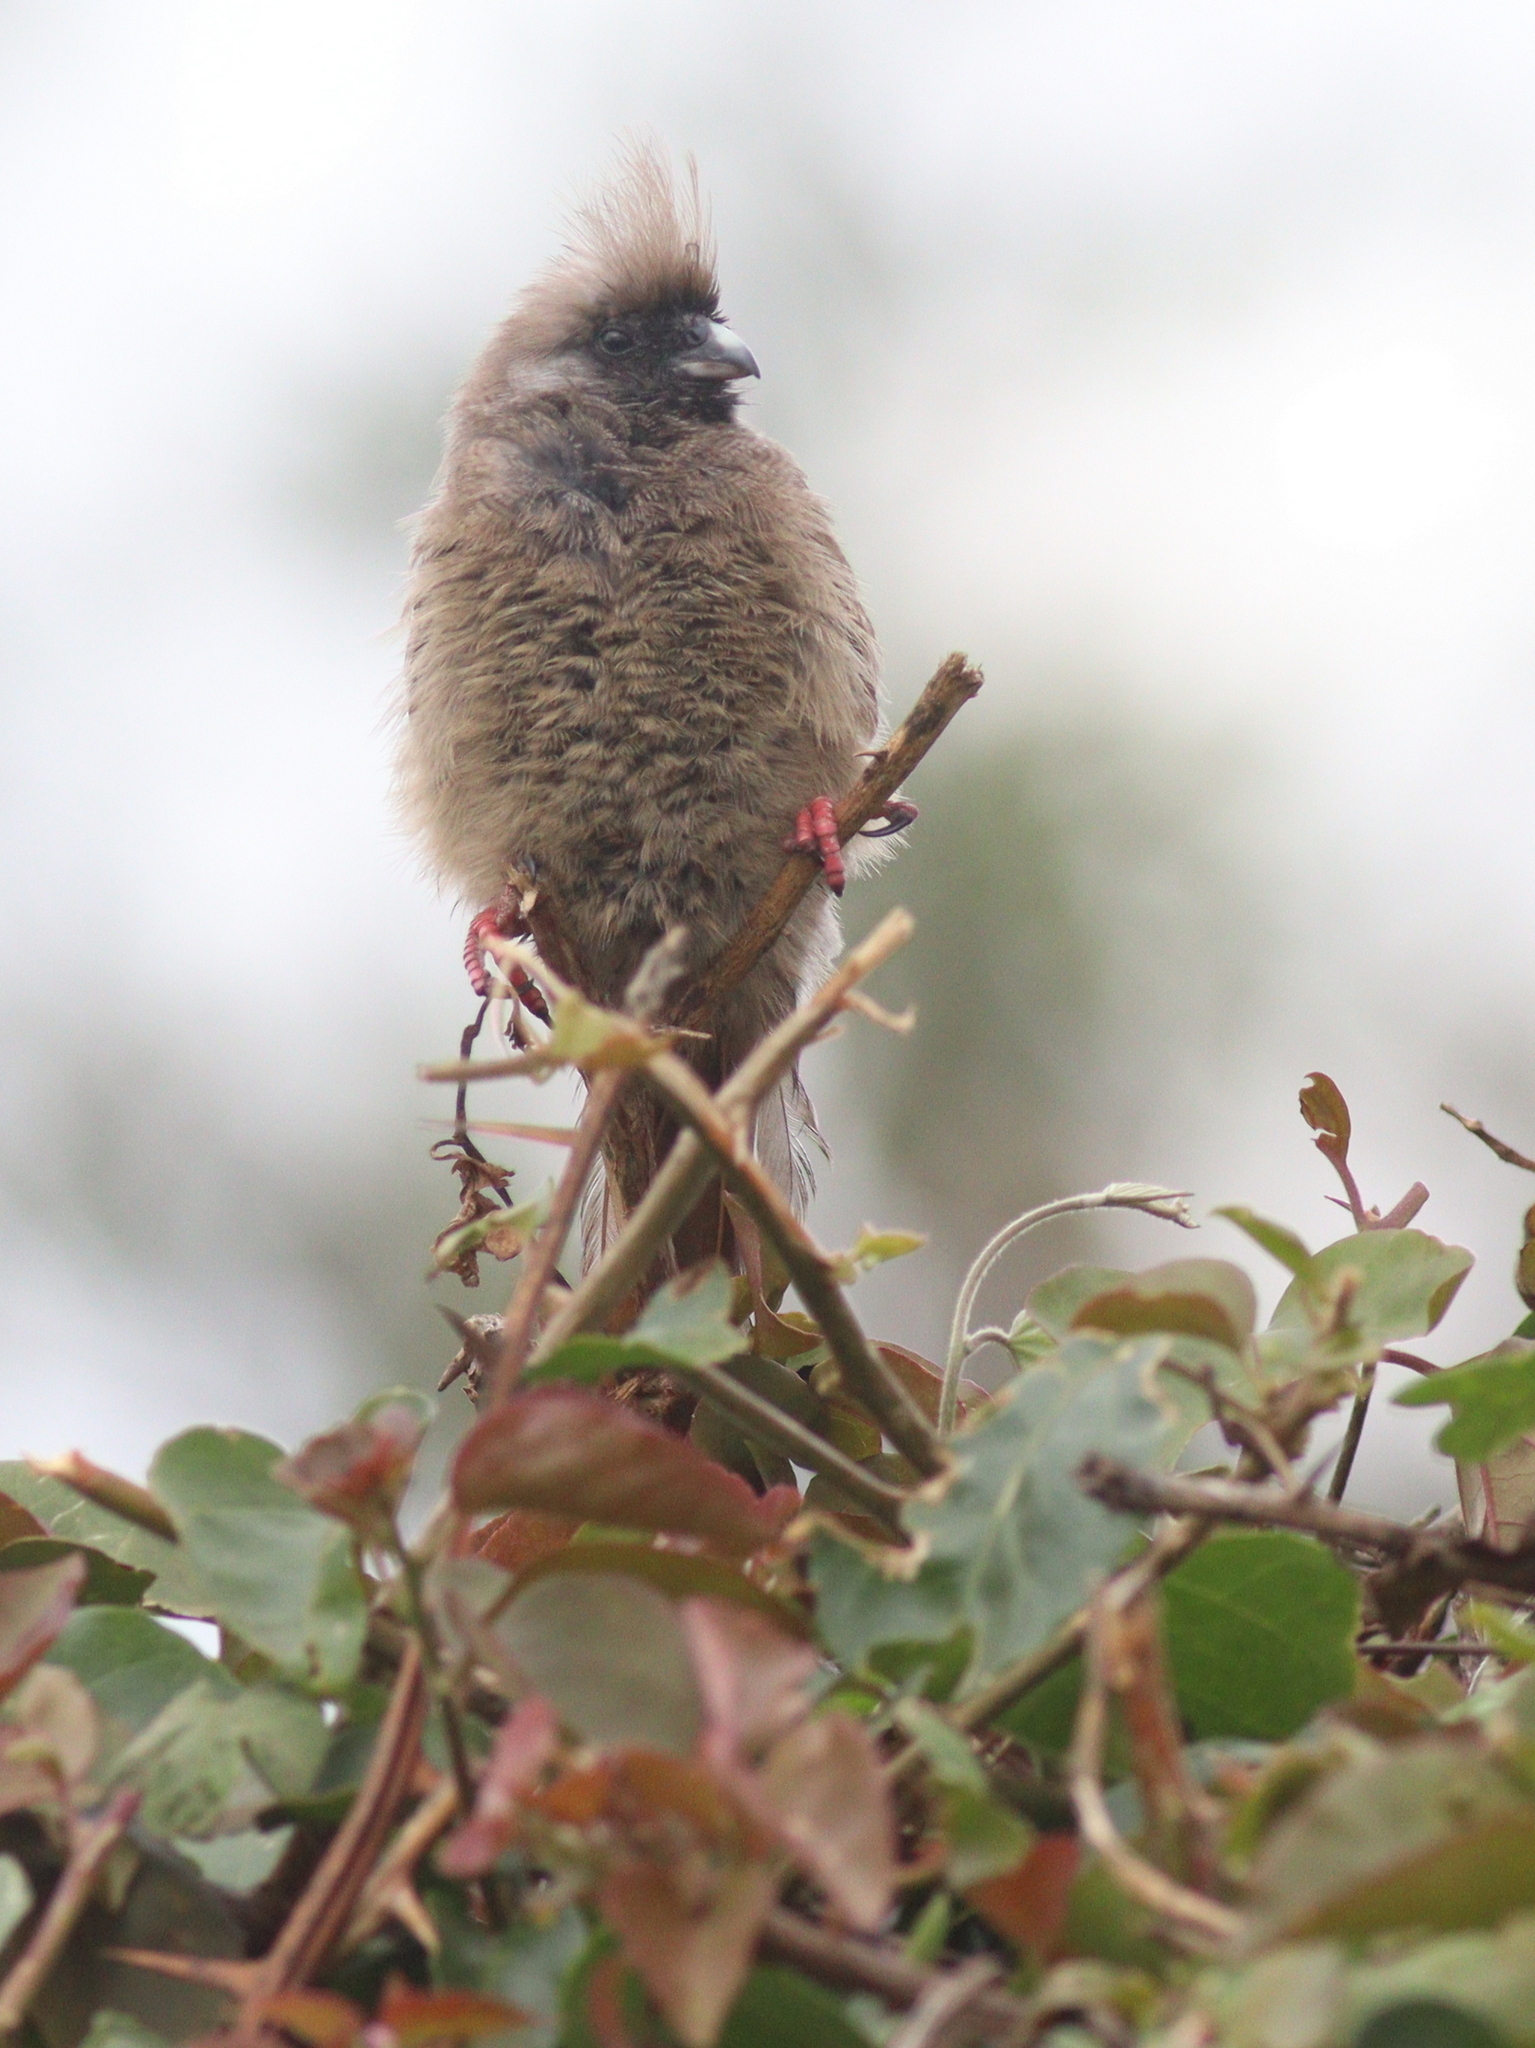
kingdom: Animalia
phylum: Chordata
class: Aves
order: Coliiformes
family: Coliidae
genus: Colius
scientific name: Colius striatus
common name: Speckled mousebird
